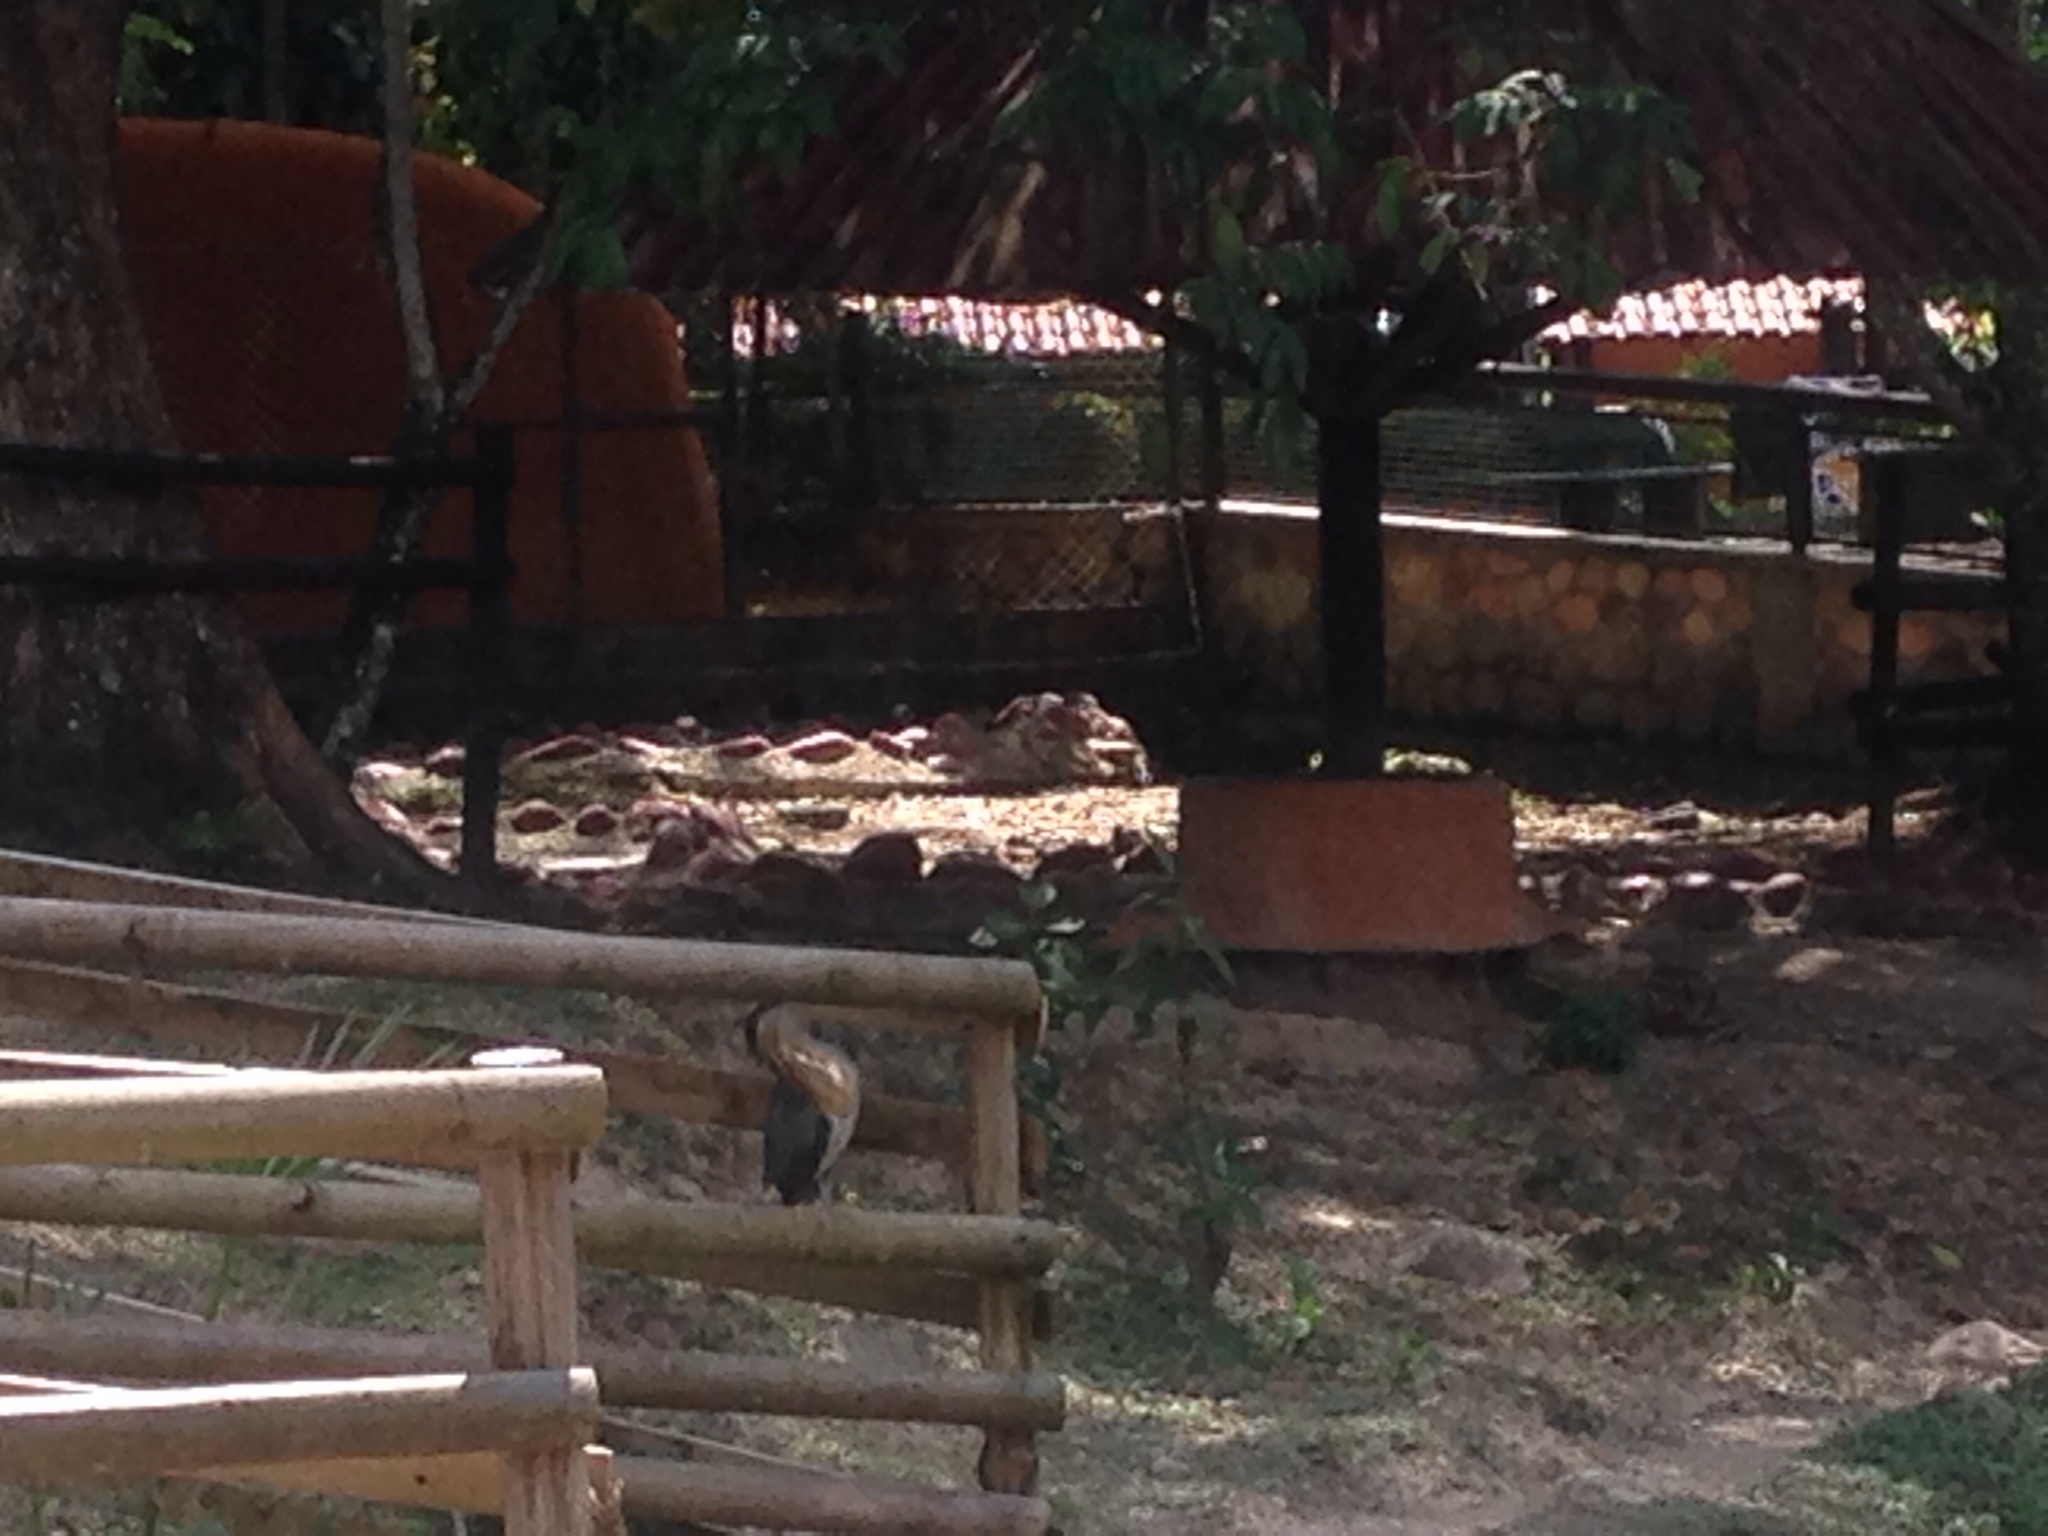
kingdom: Animalia
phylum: Chordata
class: Aves
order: Pelecaniformes
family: Ardeidae
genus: Butorides
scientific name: Butorides striata
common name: Striated heron
